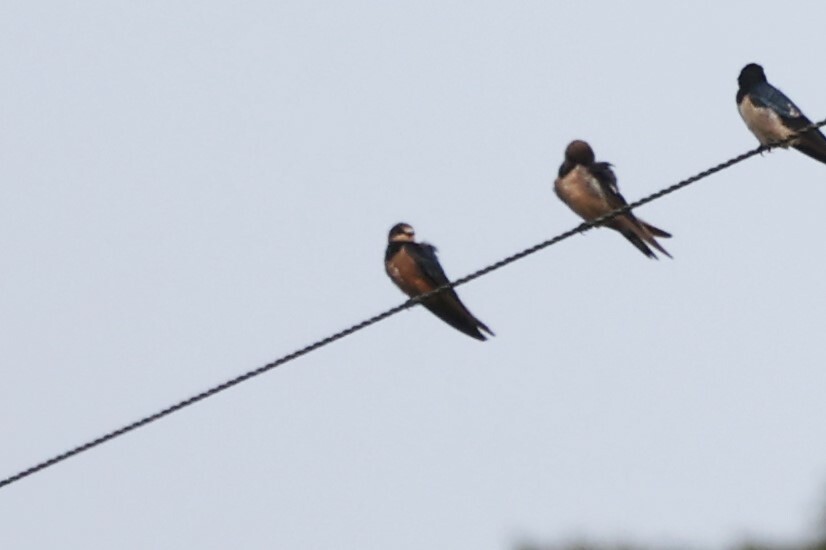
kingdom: Animalia
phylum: Chordata
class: Aves
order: Passeriformes
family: Hirundinidae
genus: Hirundo
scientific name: Hirundo rustica
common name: Barn swallow
